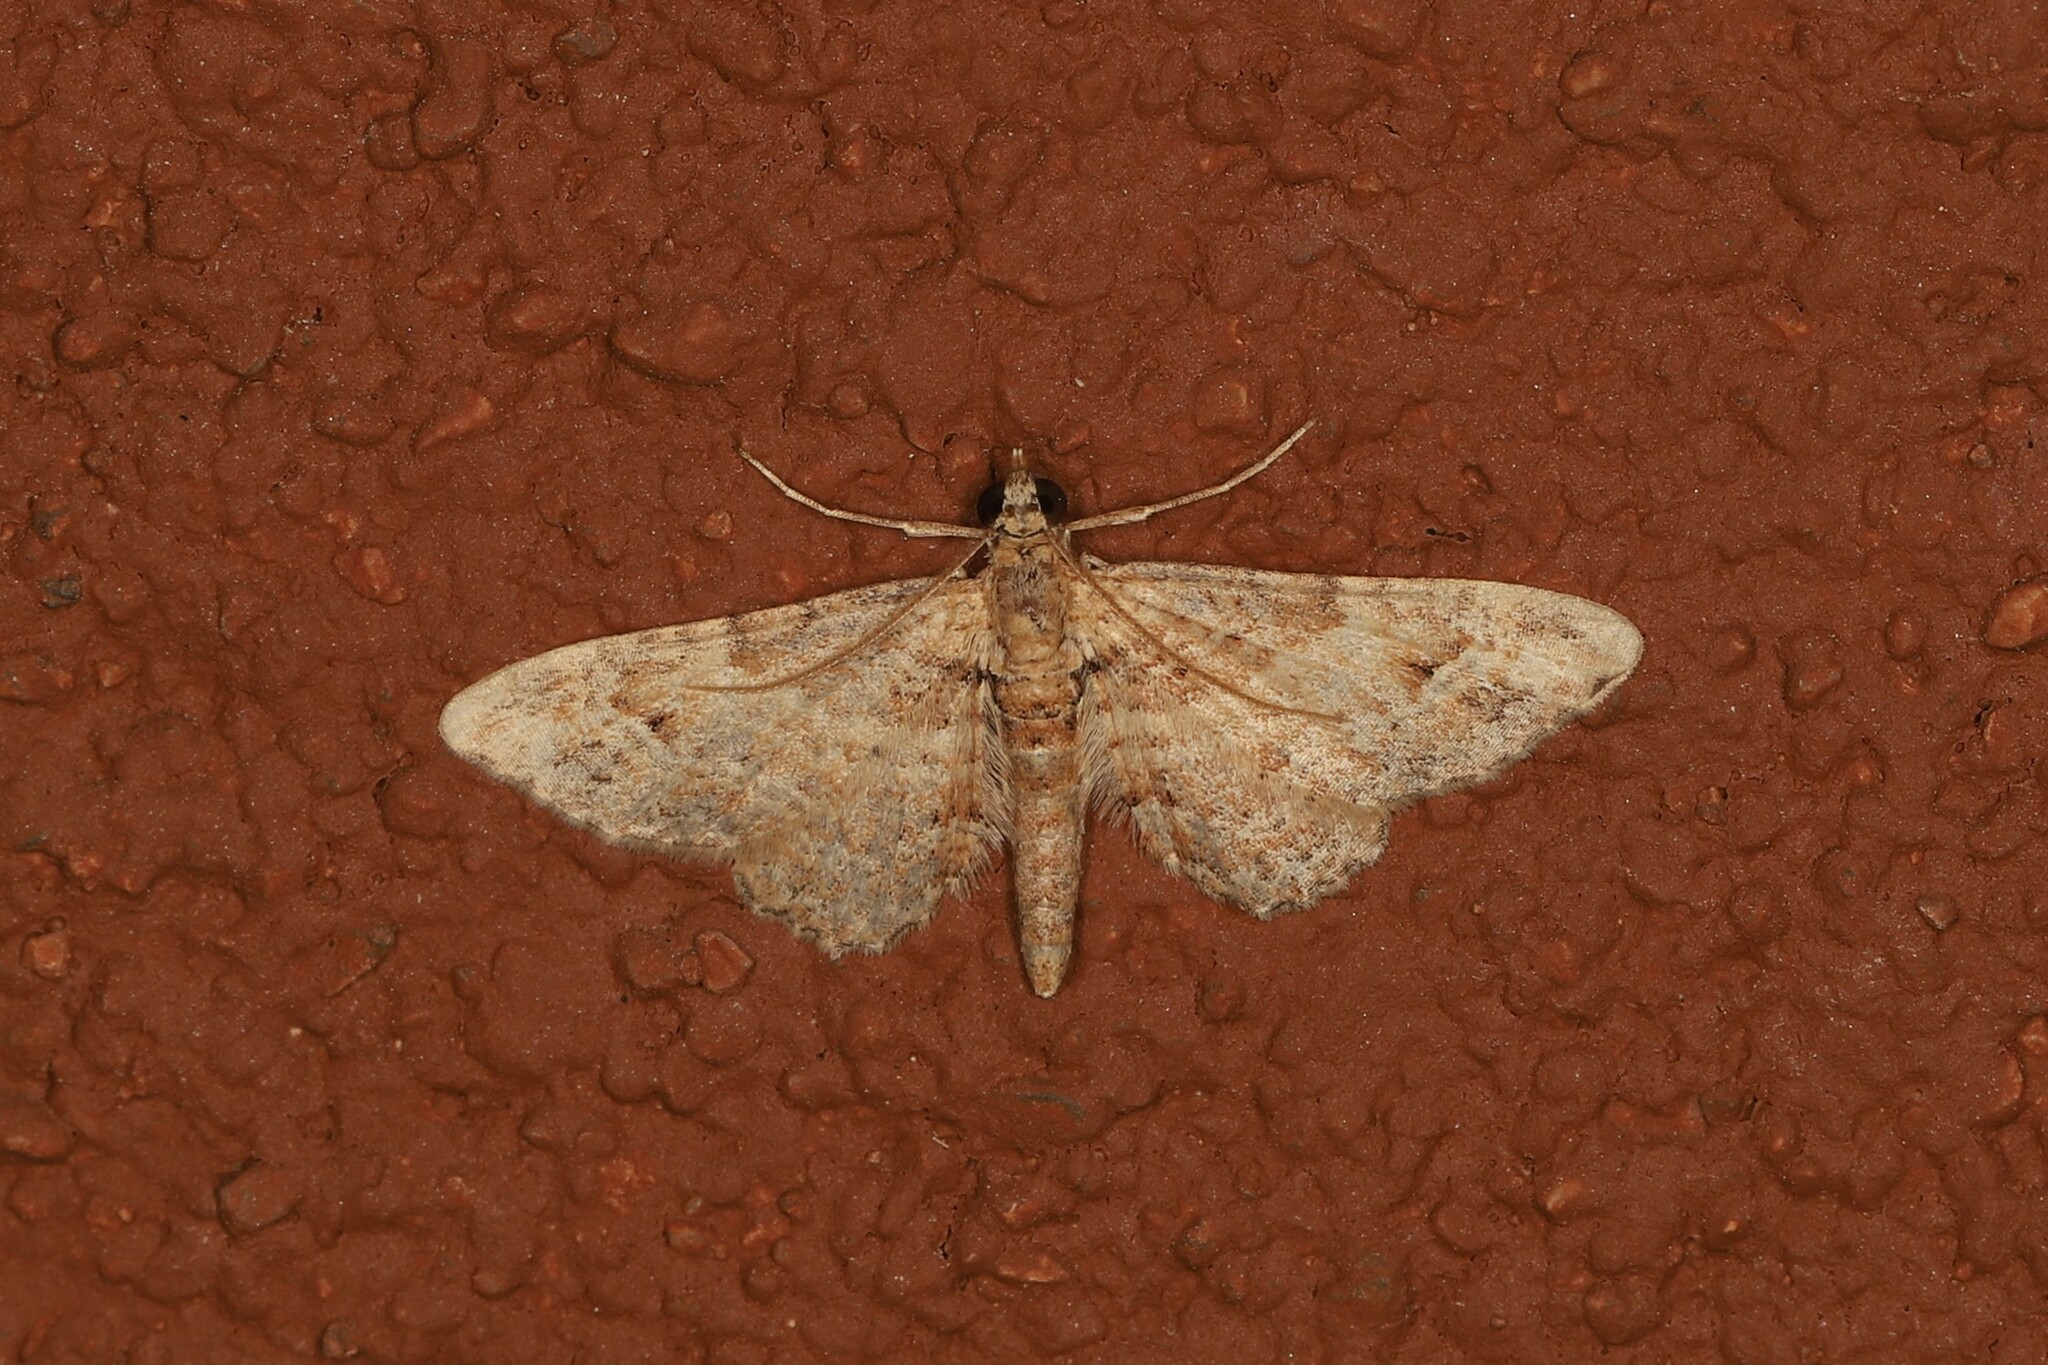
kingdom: Animalia
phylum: Arthropoda
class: Insecta
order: Lepidoptera
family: Geometridae
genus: Gymnoscelis
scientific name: Gymnoscelis rufifasciata
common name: Double-striped pug
